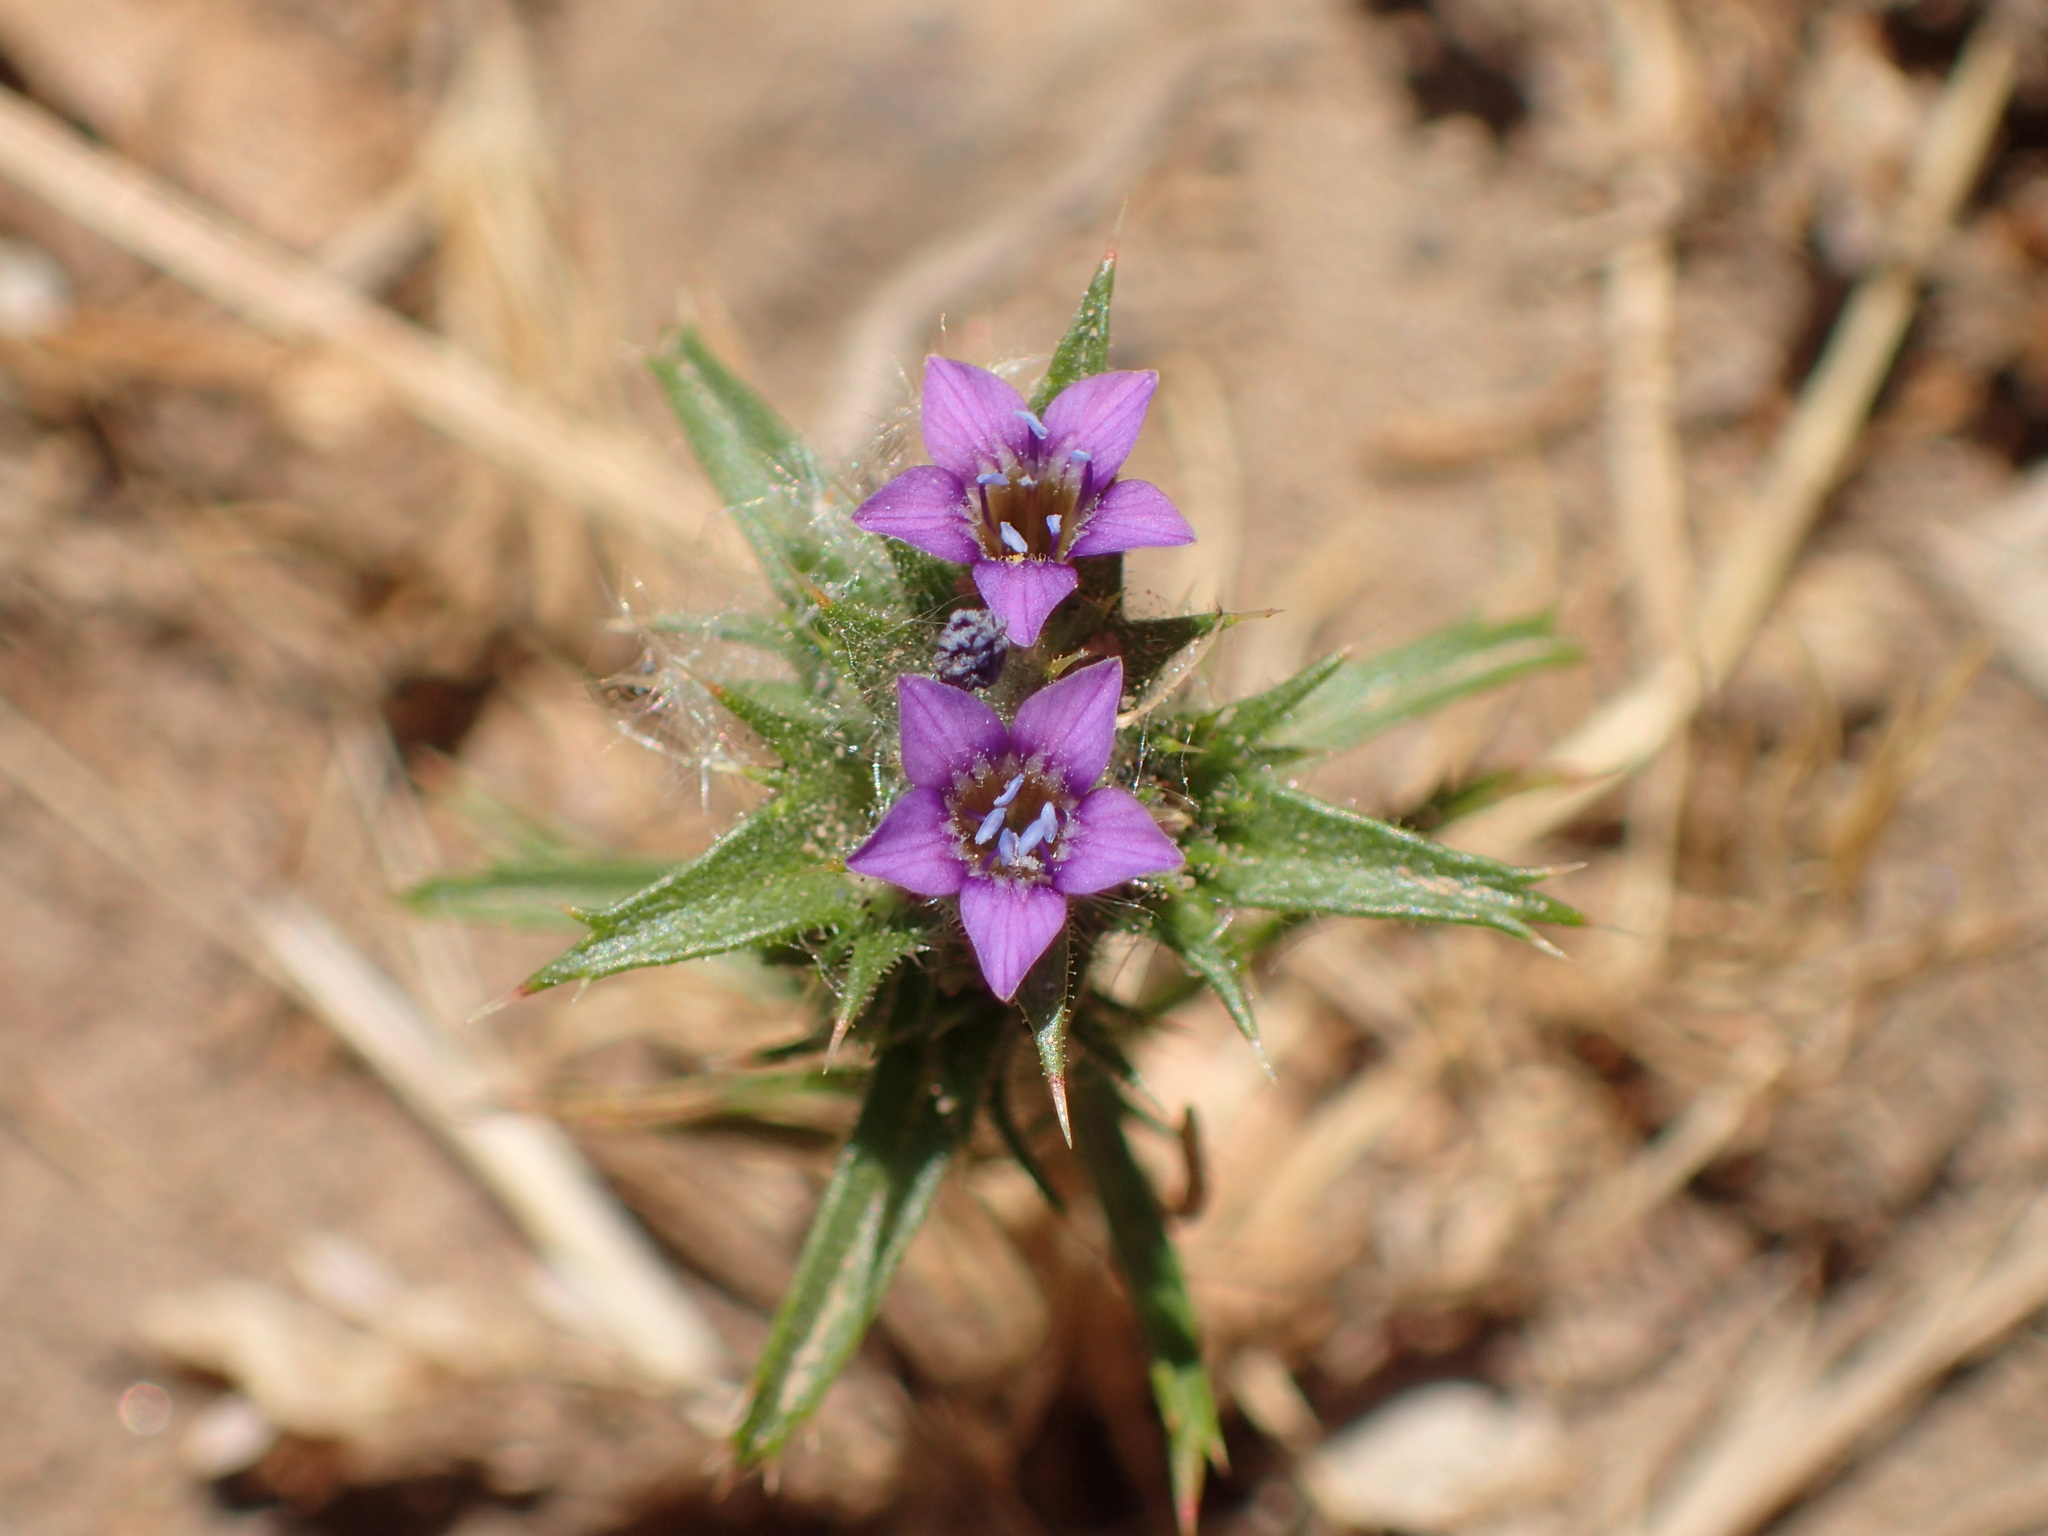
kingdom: Plantae
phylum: Tracheophyta
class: Magnoliopsida
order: Ericales
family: Polemoniaceae
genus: Navarretia
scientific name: Navarretia atractyloides
